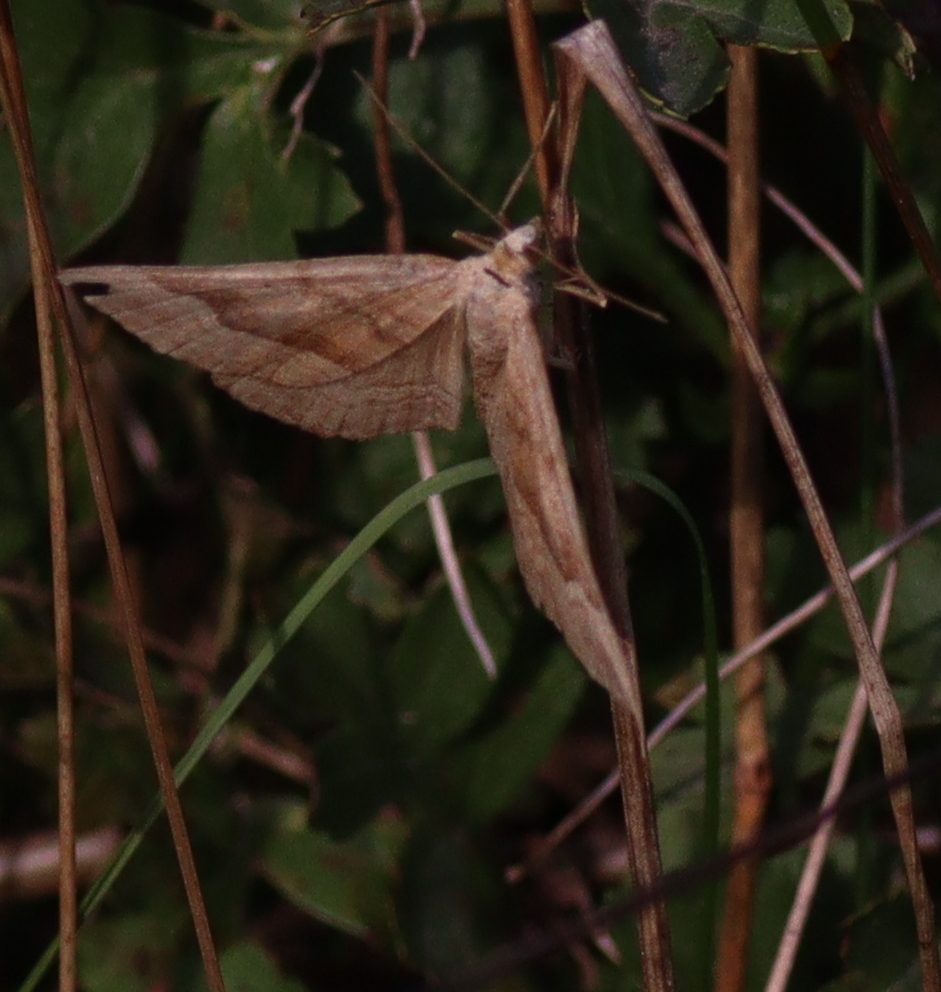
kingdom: Animalia
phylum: Arthropoda
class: Insecta
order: Lepidoptera
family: Geometridae
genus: Scotopteryx
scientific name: Scotopteryx chenopodiata
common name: Shaded broad-bar
